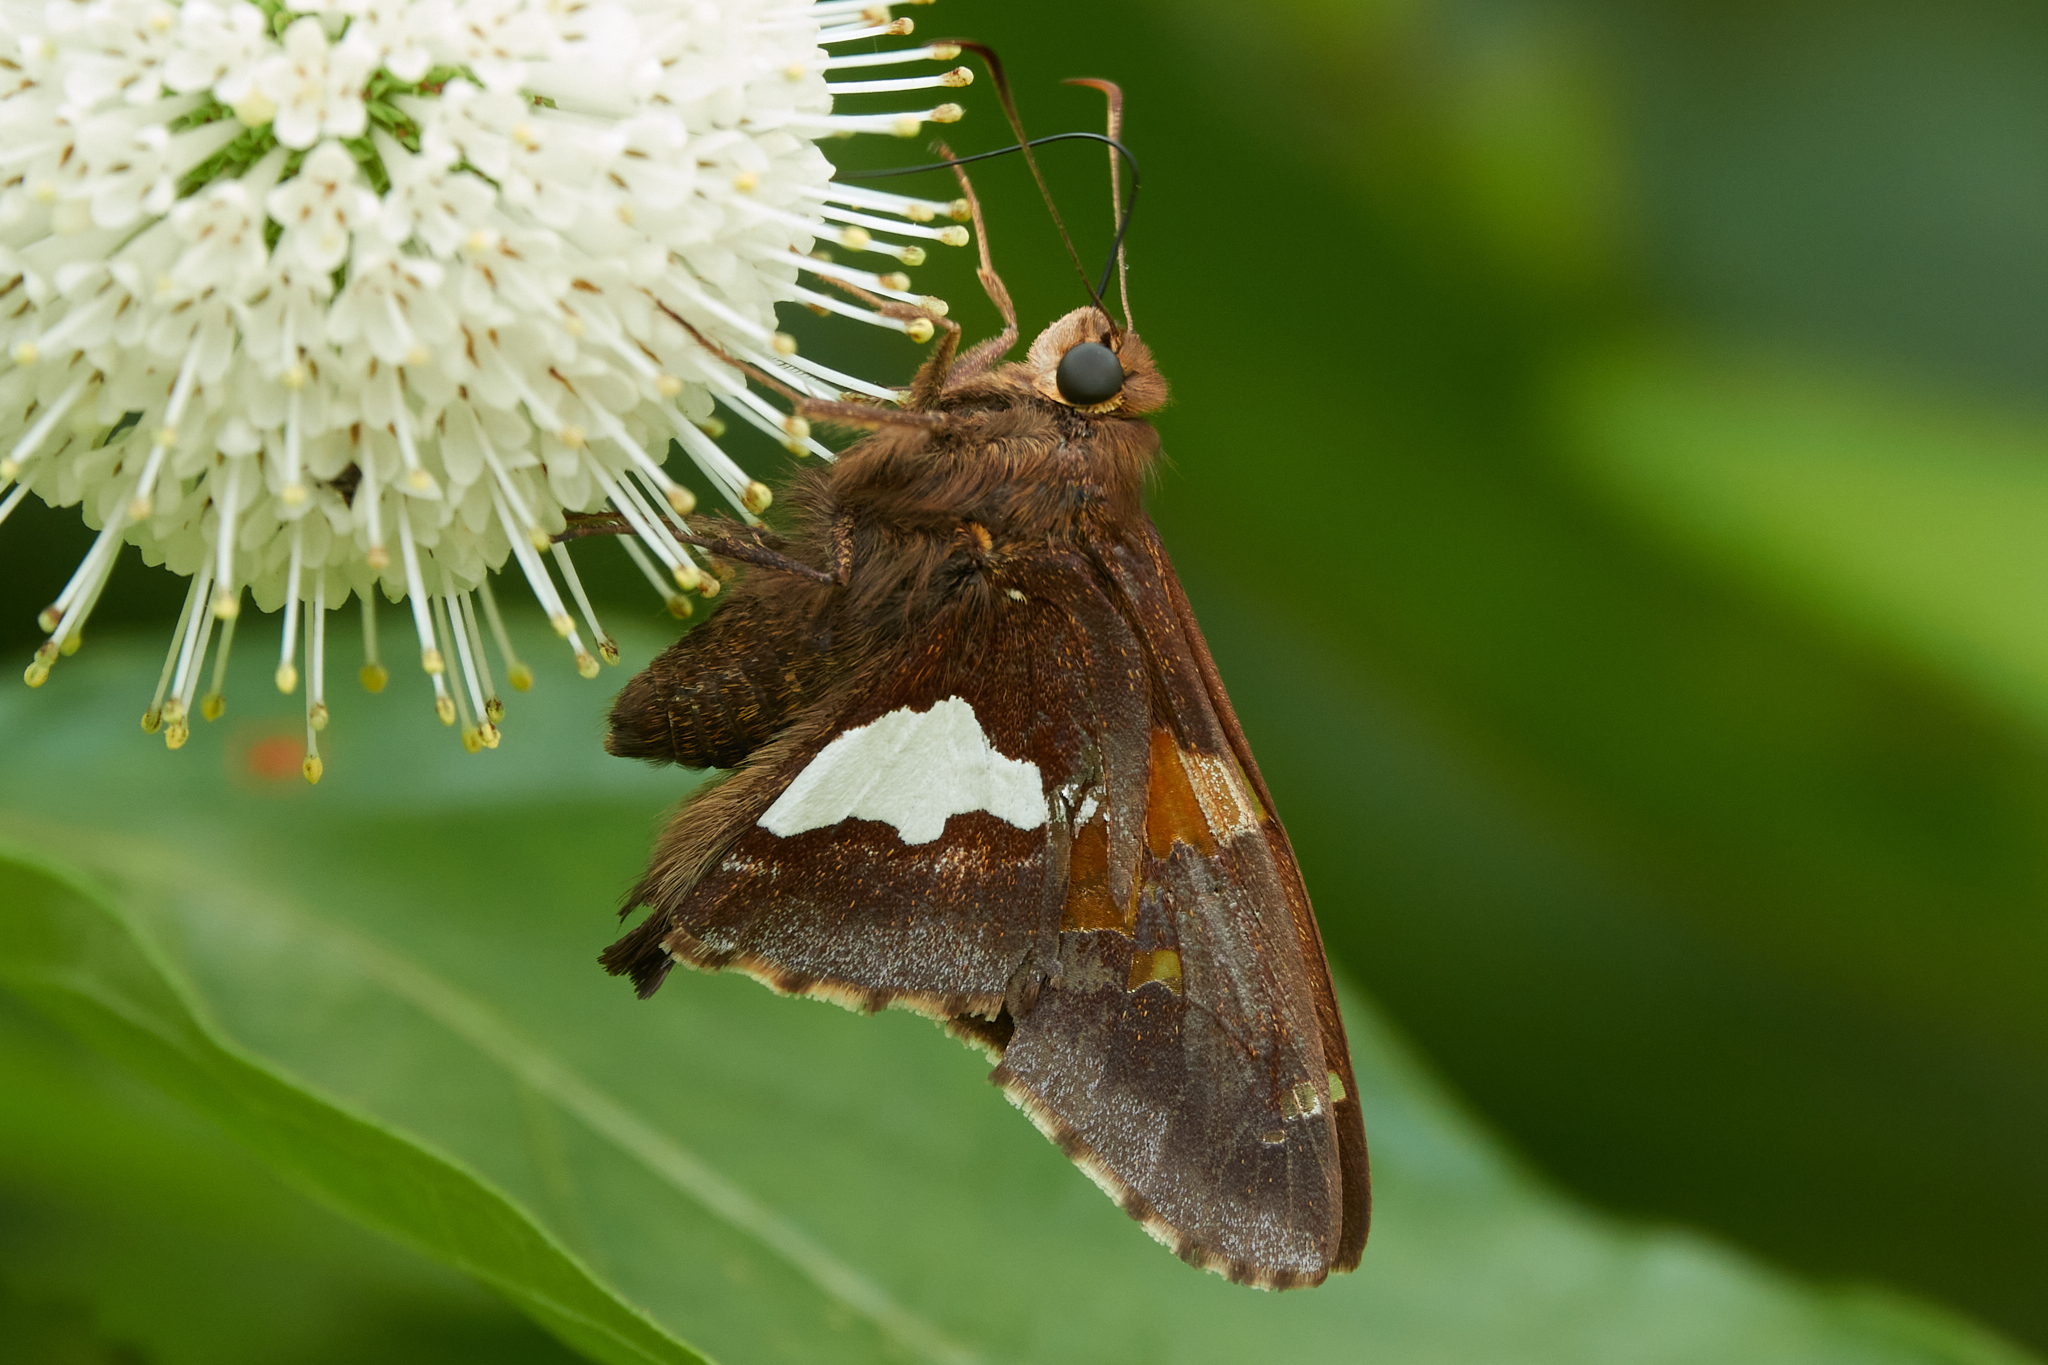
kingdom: Animalia
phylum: Arthropoda
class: Insecta
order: Lepidoptera
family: Hesperiidae
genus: Epargyreus
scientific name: Epargyreus clarus
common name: Silver-spotted skipper
